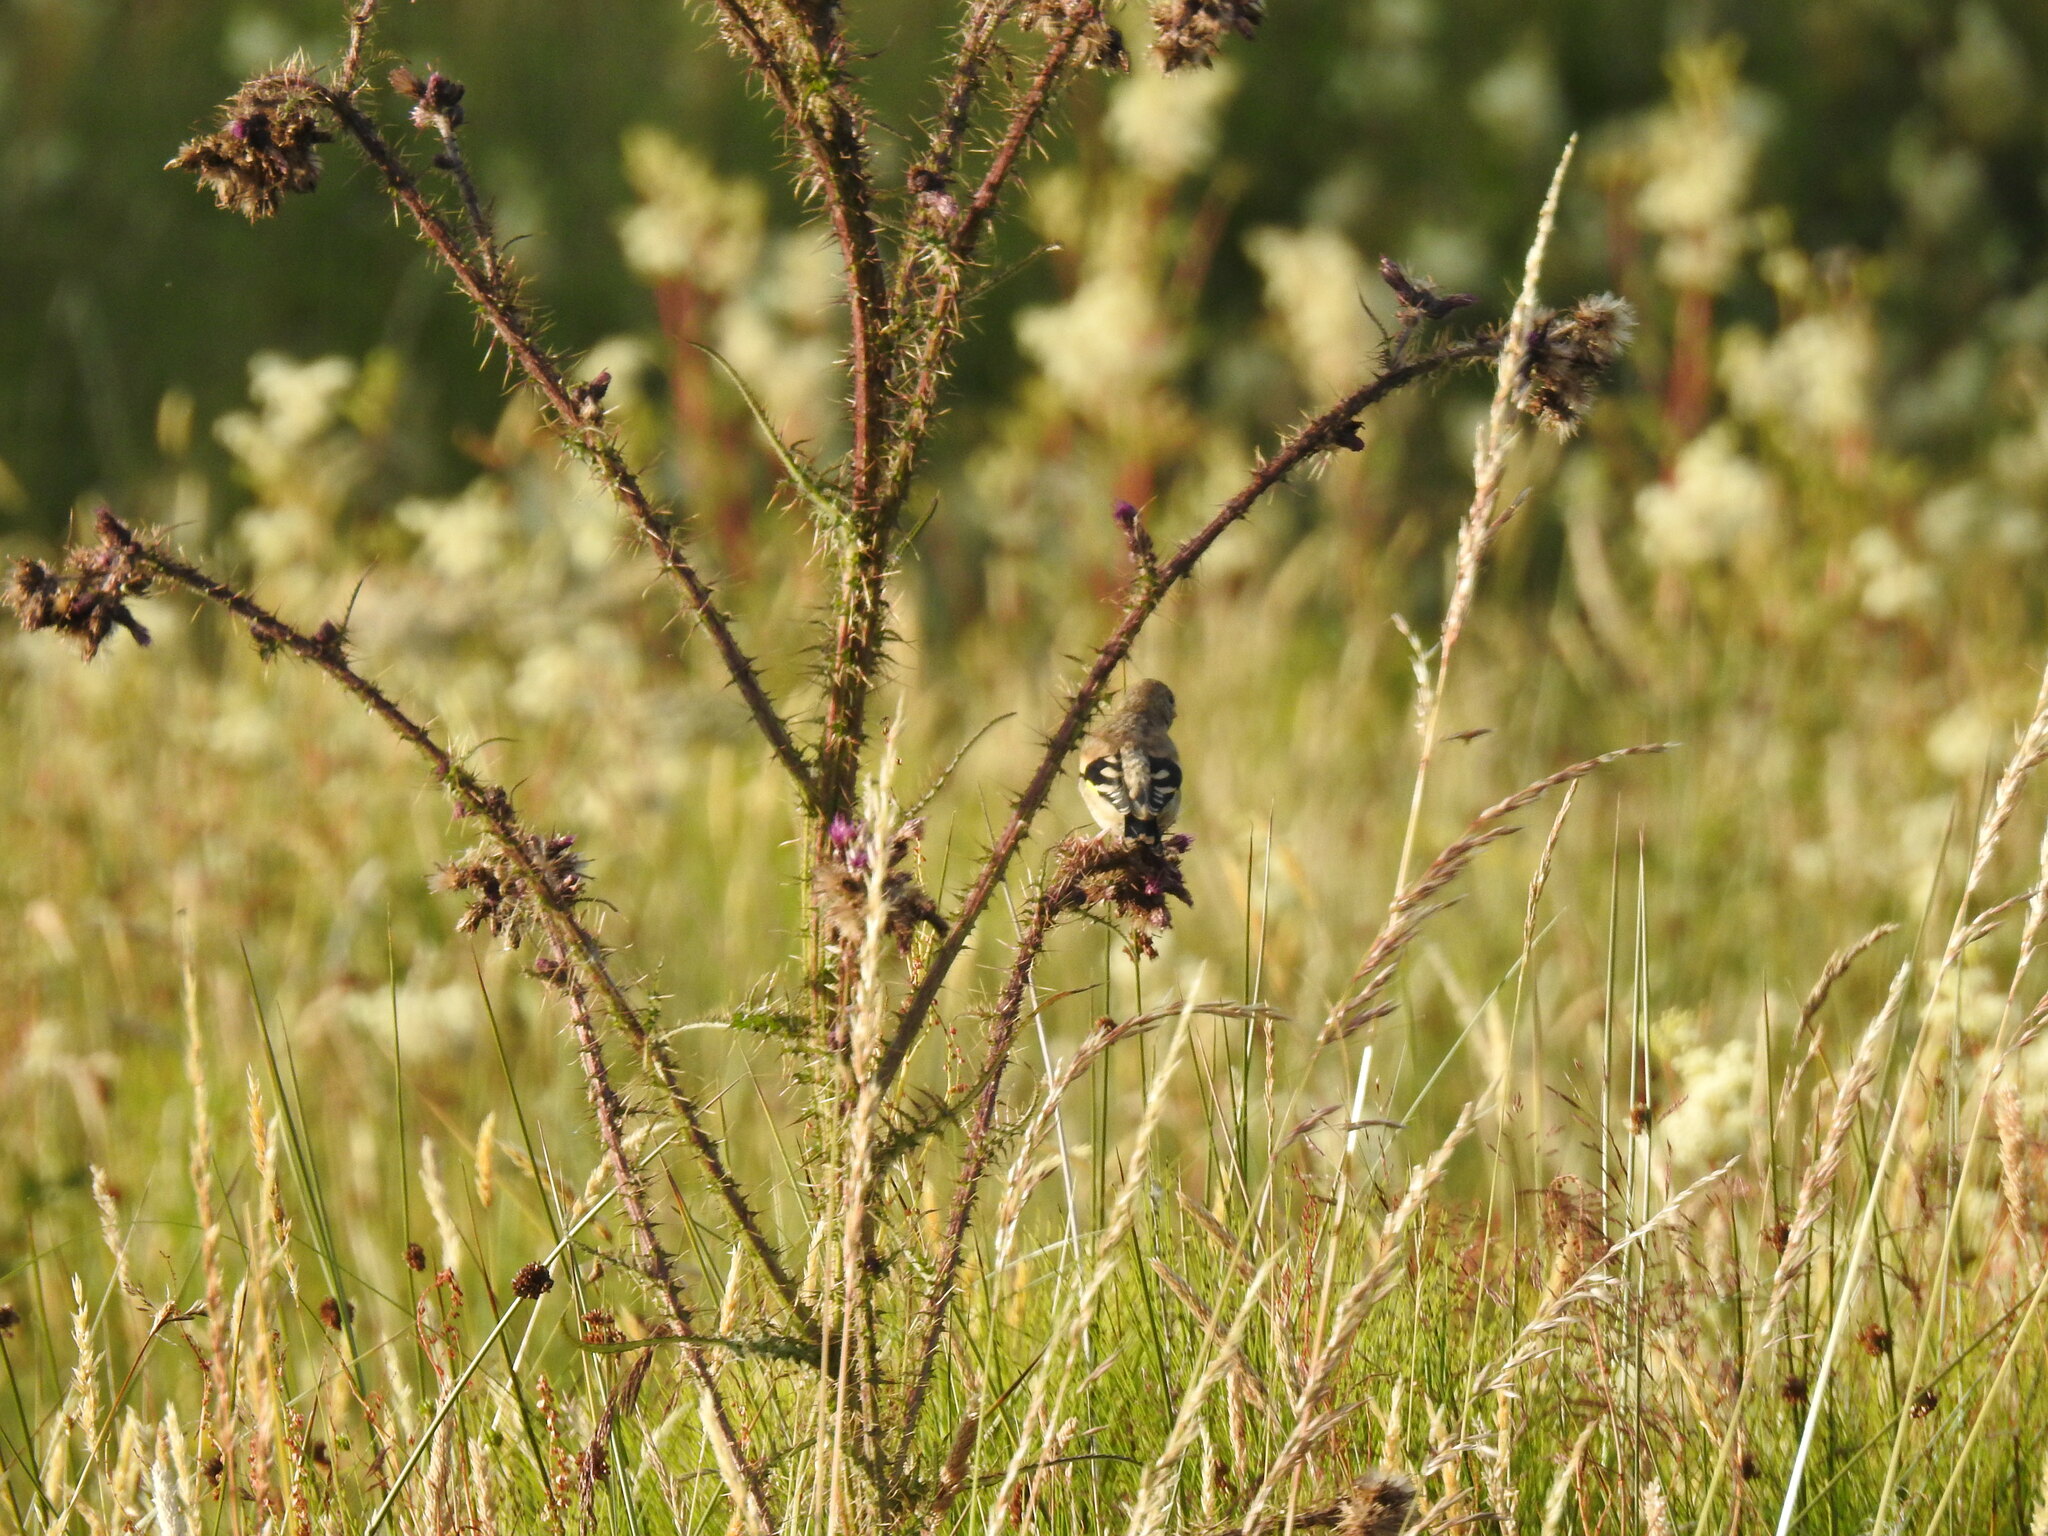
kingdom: Animalia
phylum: Chordata
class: Aves
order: Passeriformes
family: Fringillidae
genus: Carduelis
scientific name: Carduelis carduelis
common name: European goldfinch
